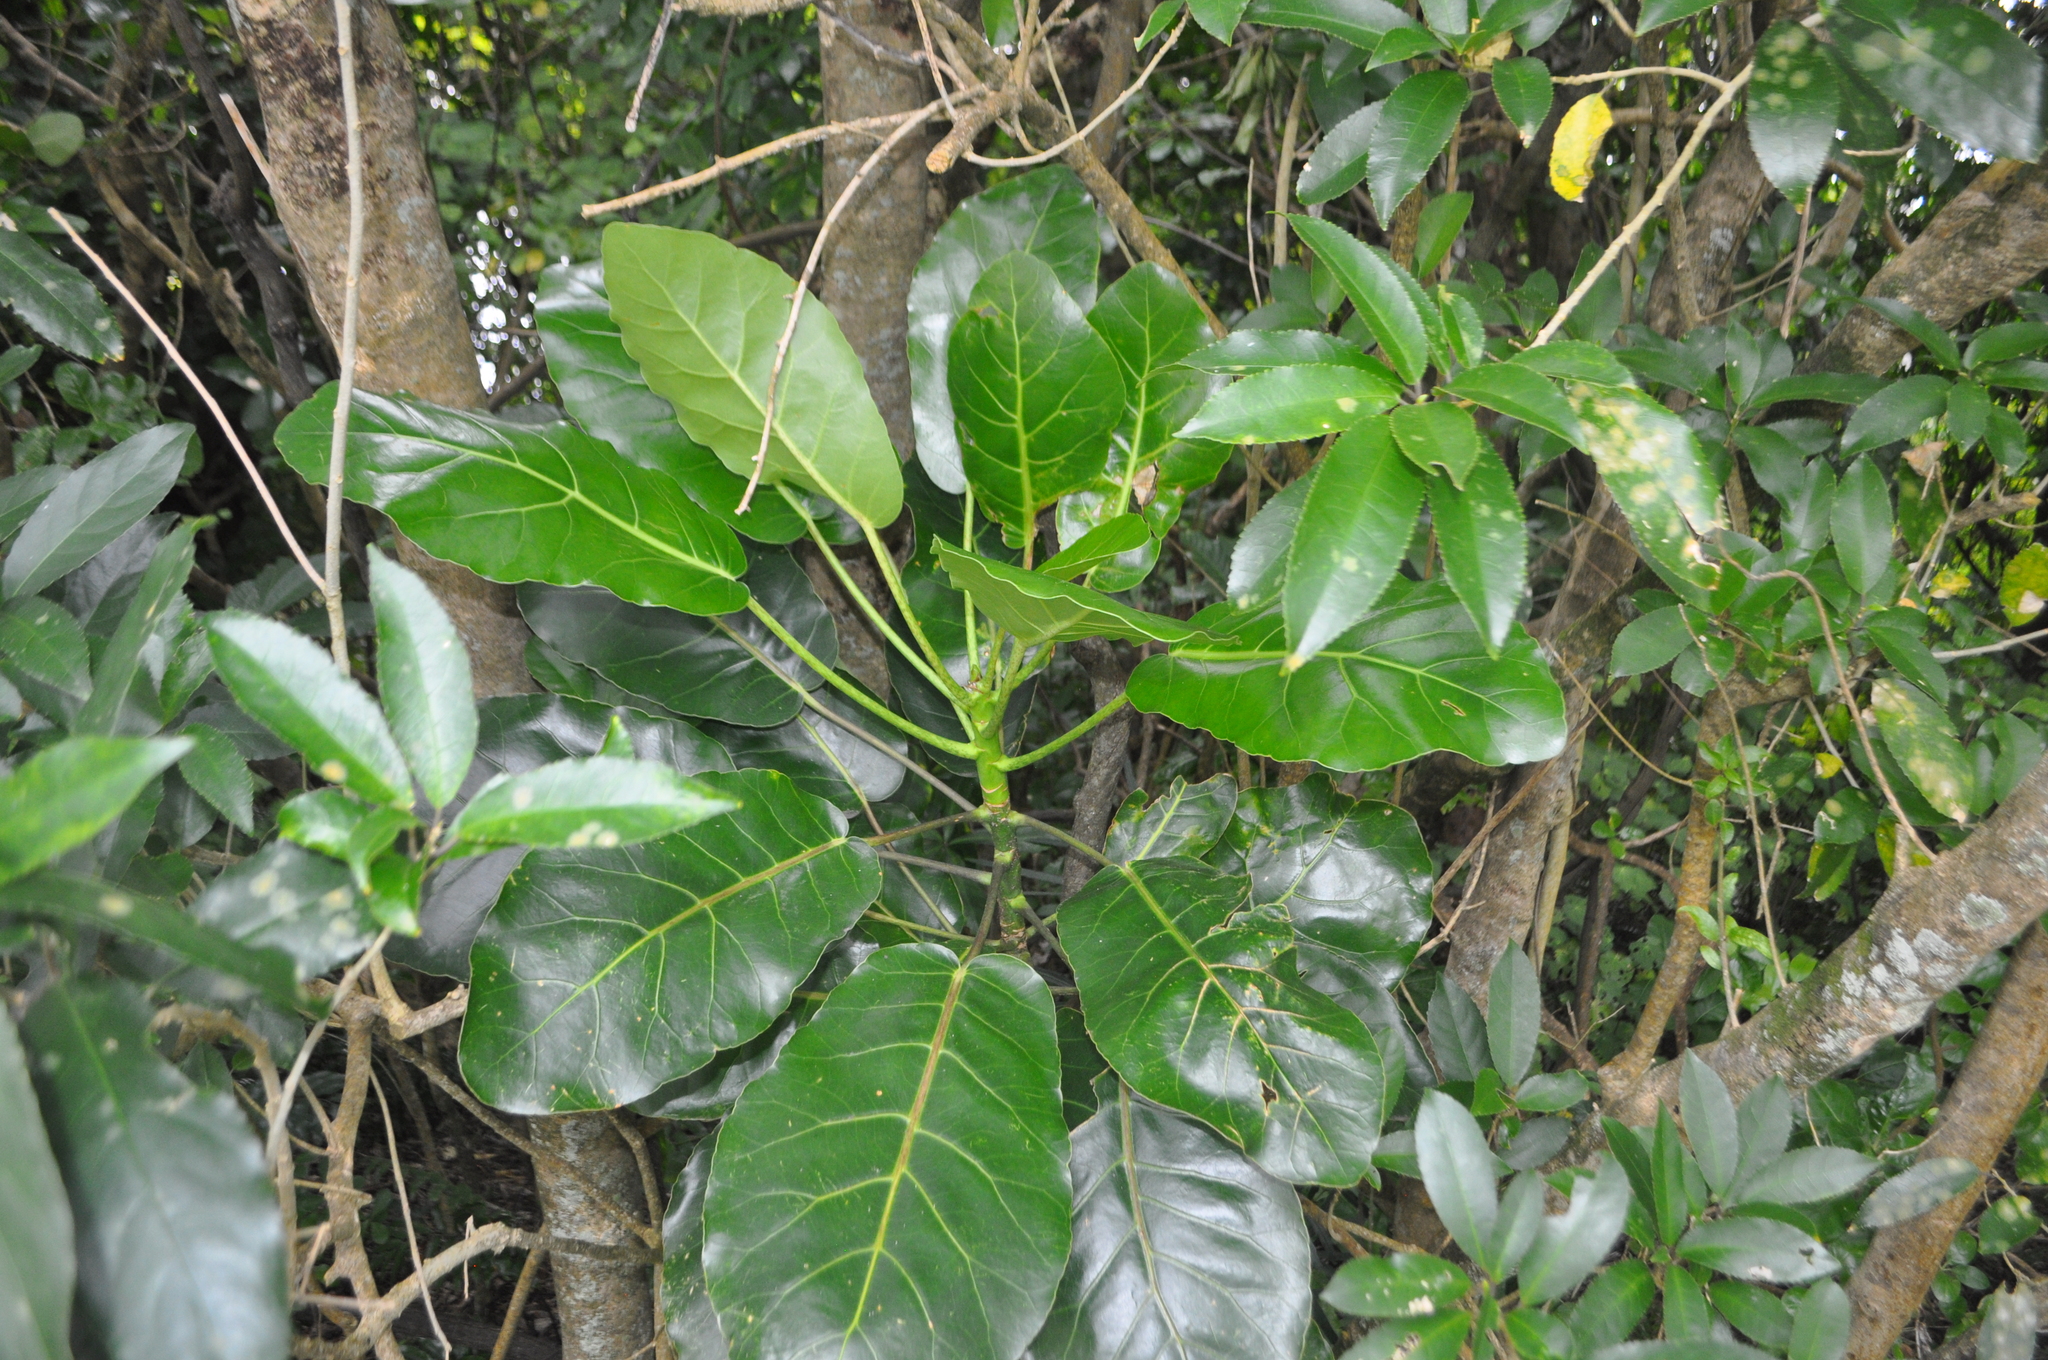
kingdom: Plantae
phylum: Tracheophyta
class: Magnoliopsida
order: Apiales
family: Araliaceae
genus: Meryta
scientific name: Meryta sinclairii
